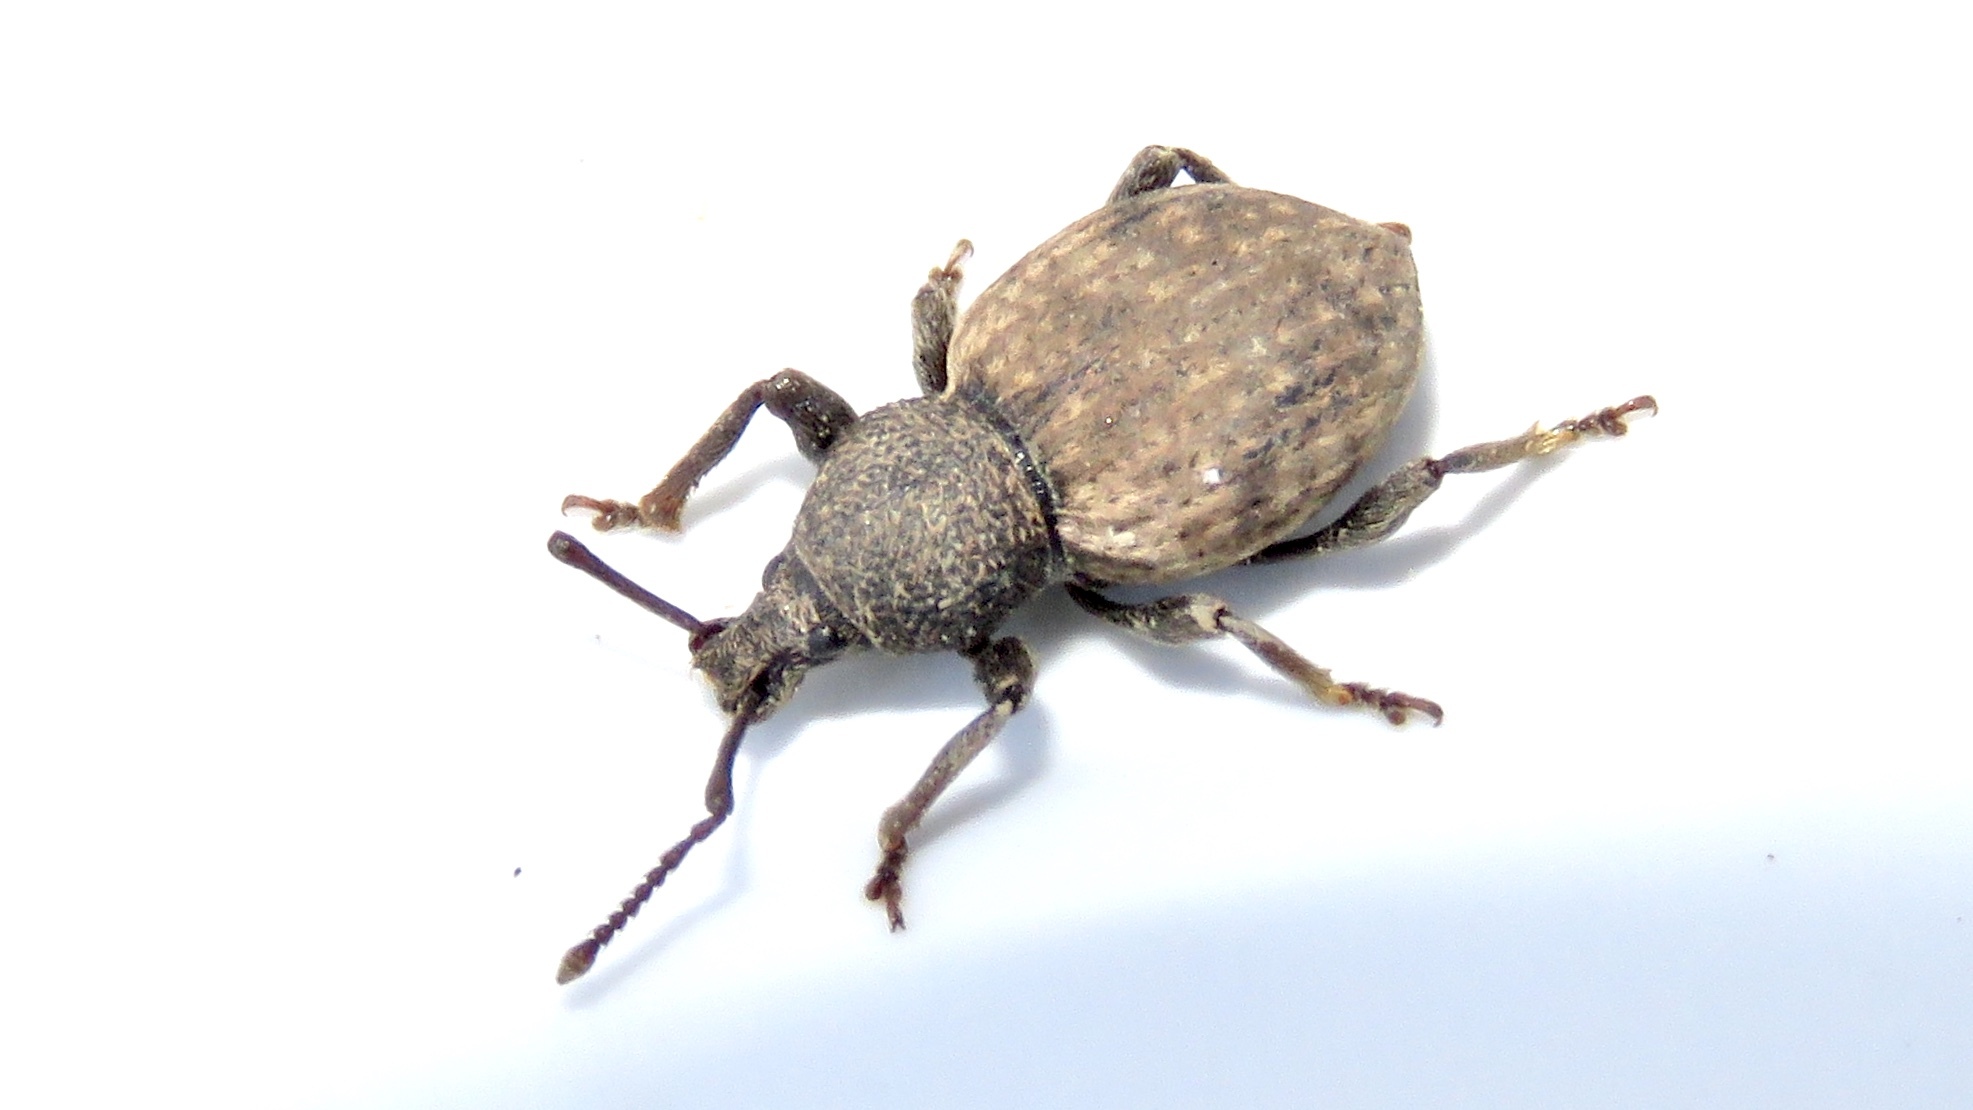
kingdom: Animalia
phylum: Arthropoda
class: Insecta
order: Coleoptera
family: Curculionidae
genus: Otiorhynchus
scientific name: Otiorhynchus raucus
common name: Weevil
